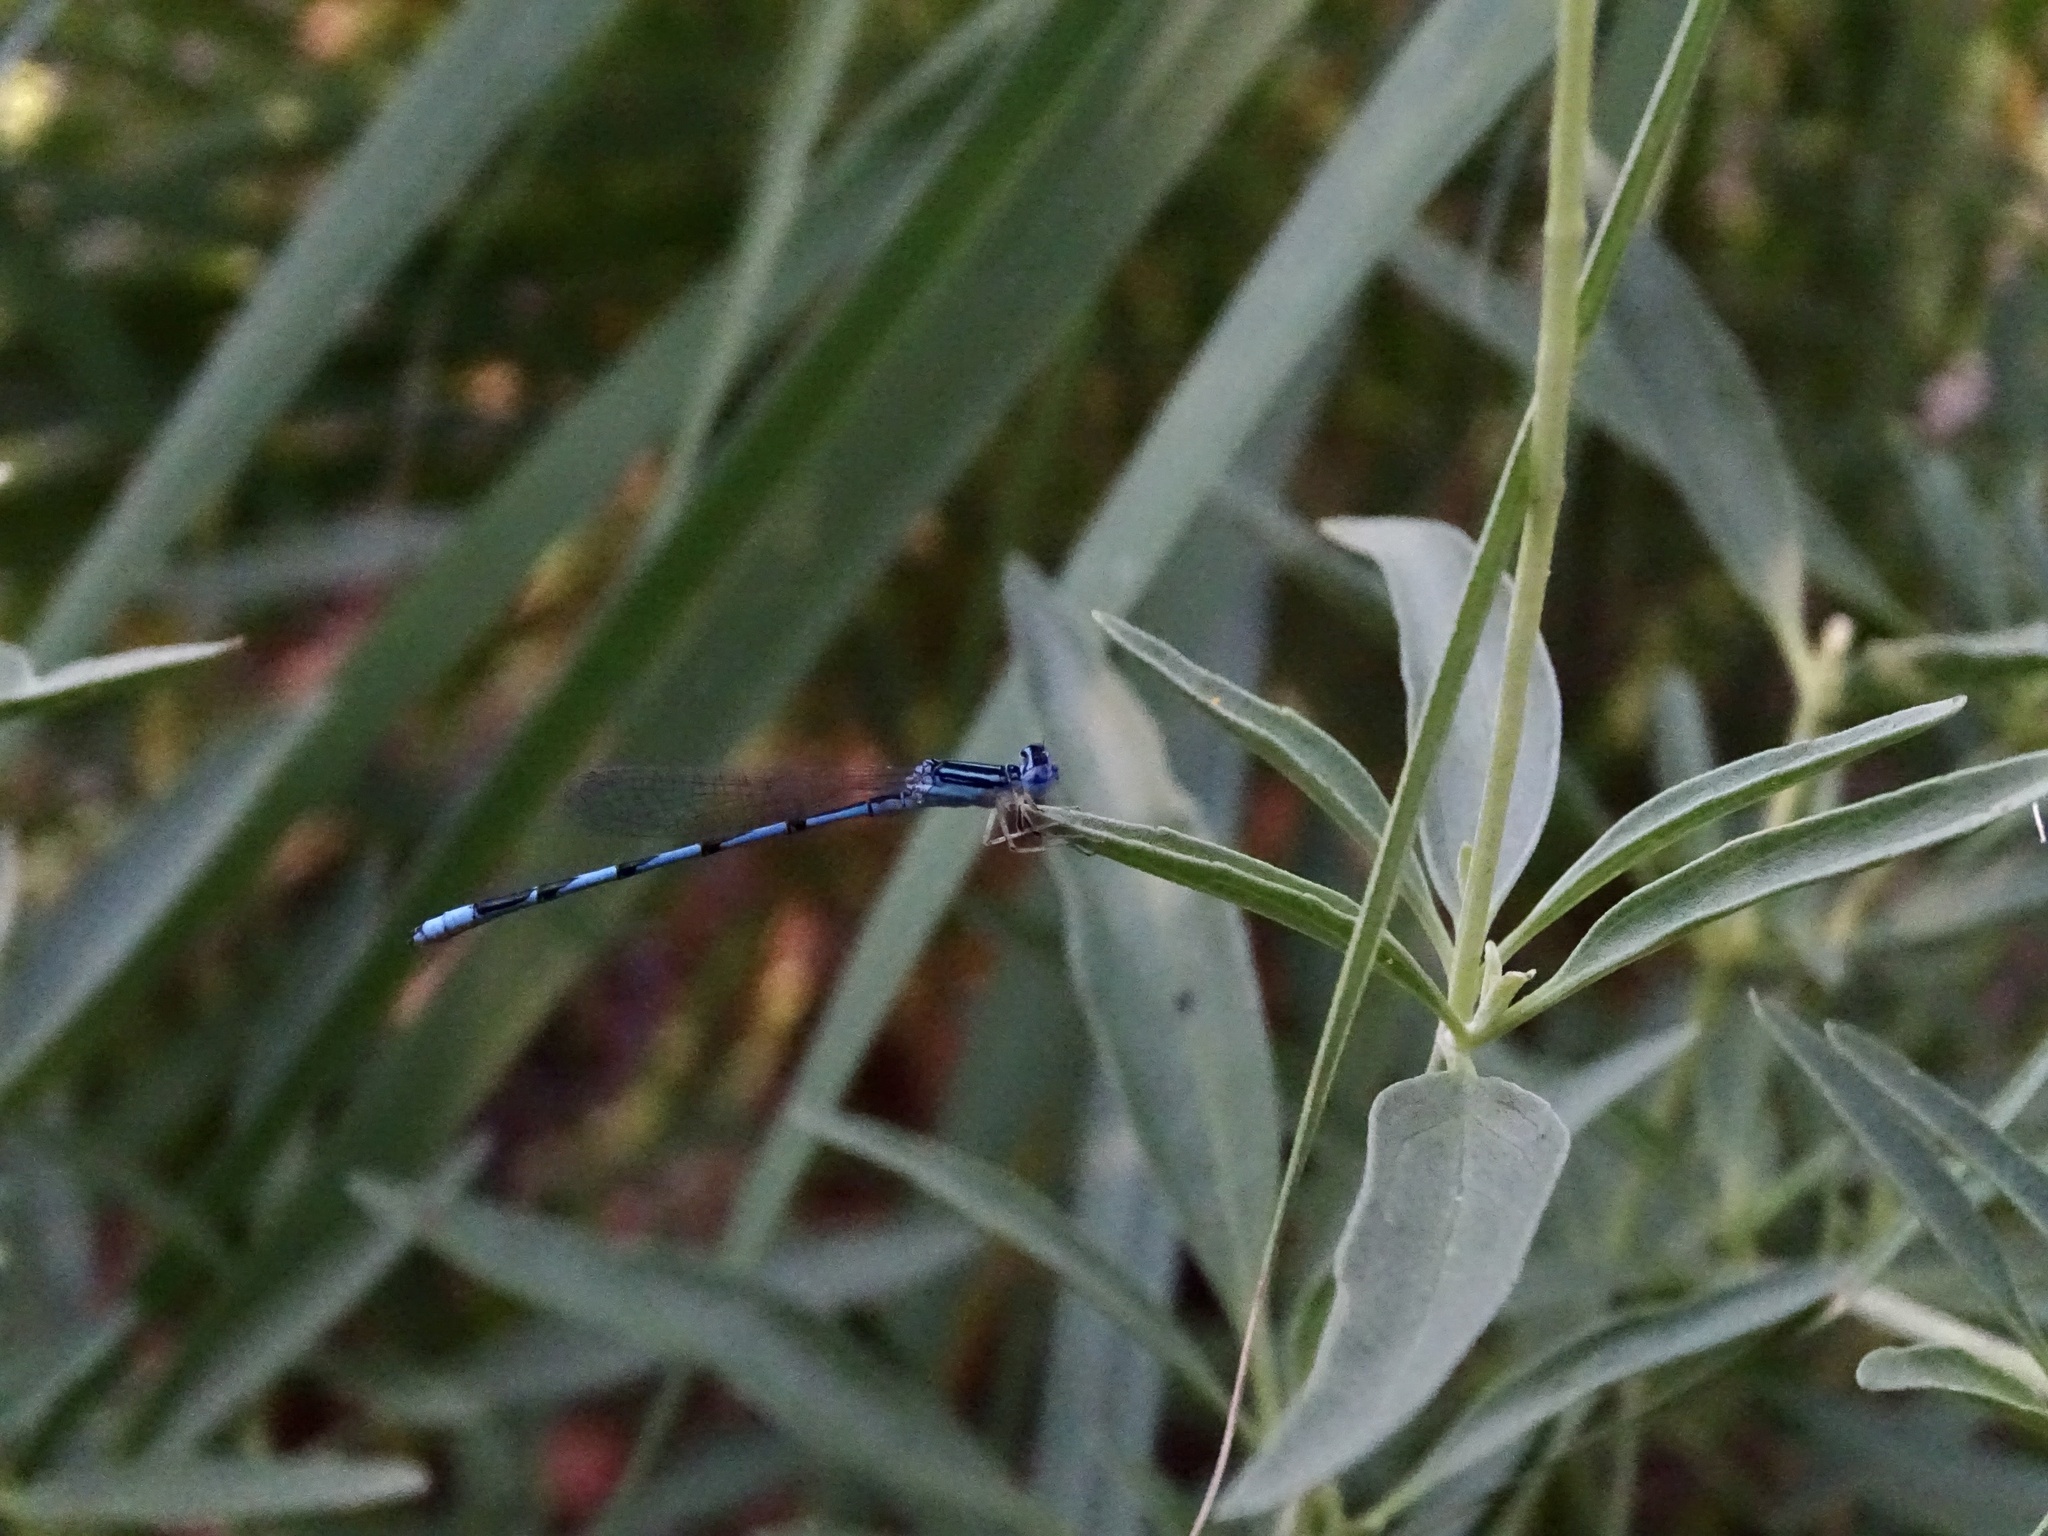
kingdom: Animalia
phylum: Arthropoda
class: Insecta
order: Odonata
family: Coenagrionidae
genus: Enallagma
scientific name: Enallagma basidens
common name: Double-striped bluet
